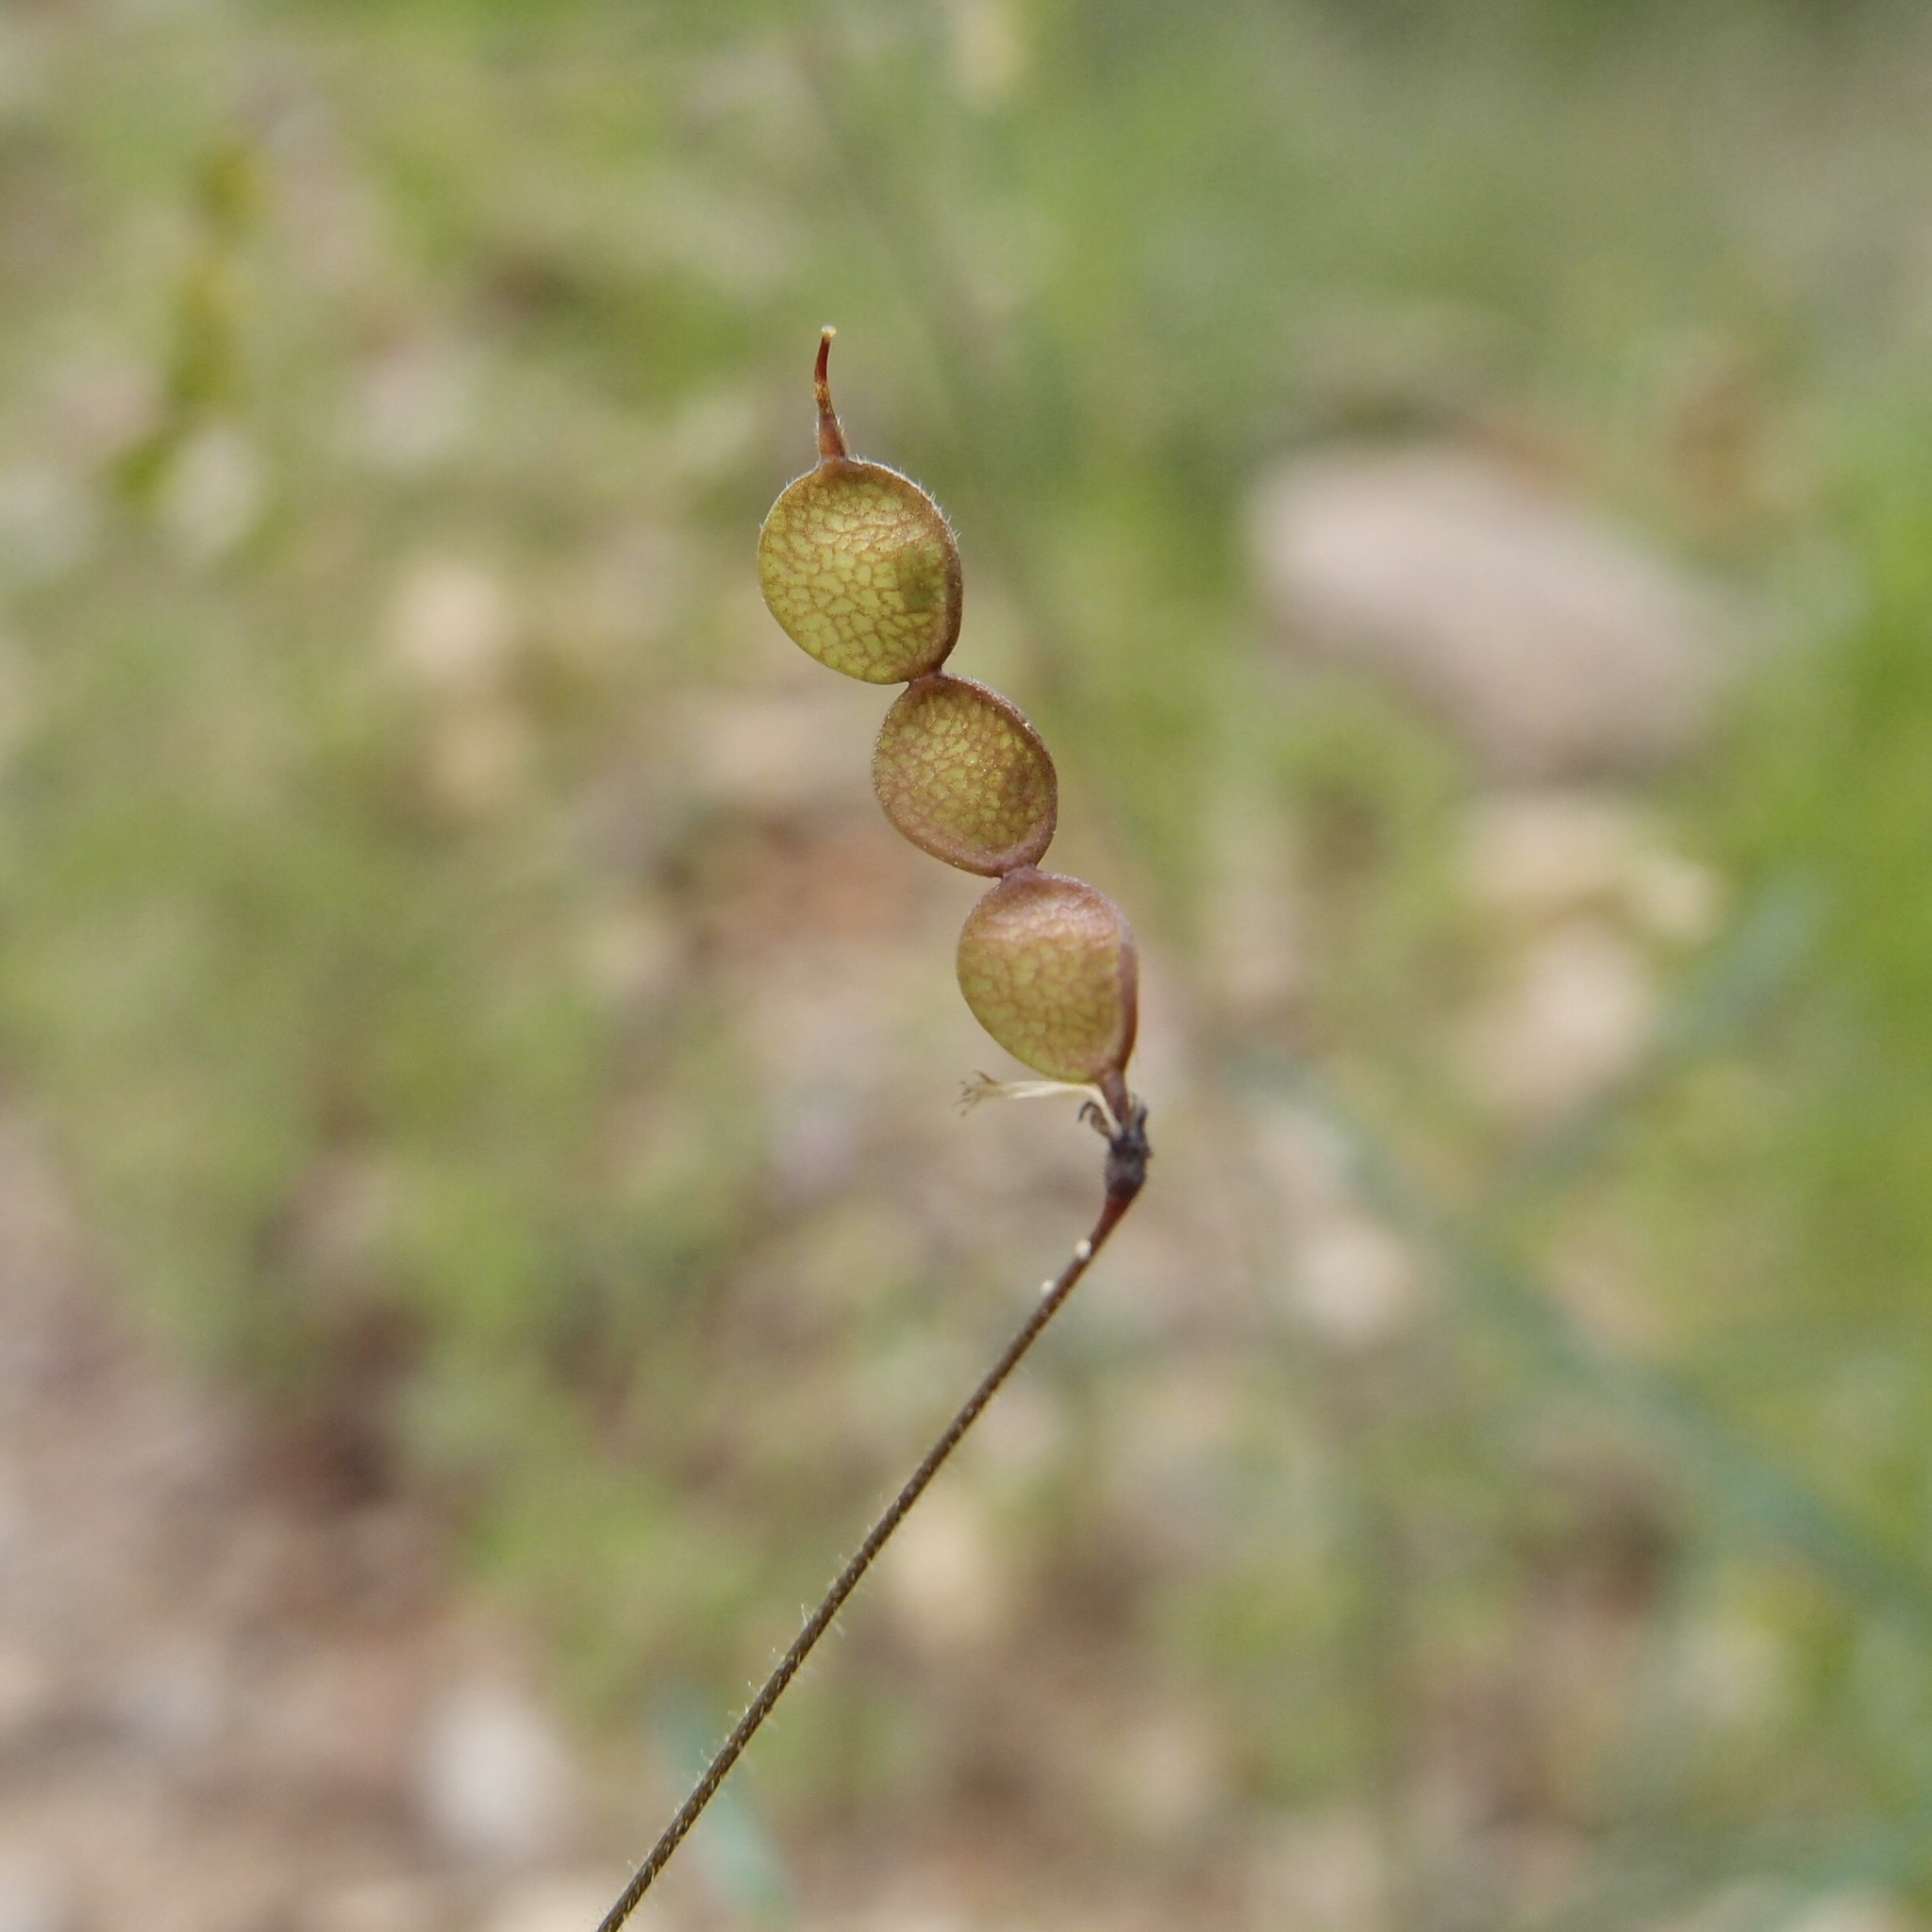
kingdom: Plantae
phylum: Tracheophyta
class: Magnoliopsida
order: Fabales
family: Fabaceae
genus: Desmodium
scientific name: Desmodium rosei
